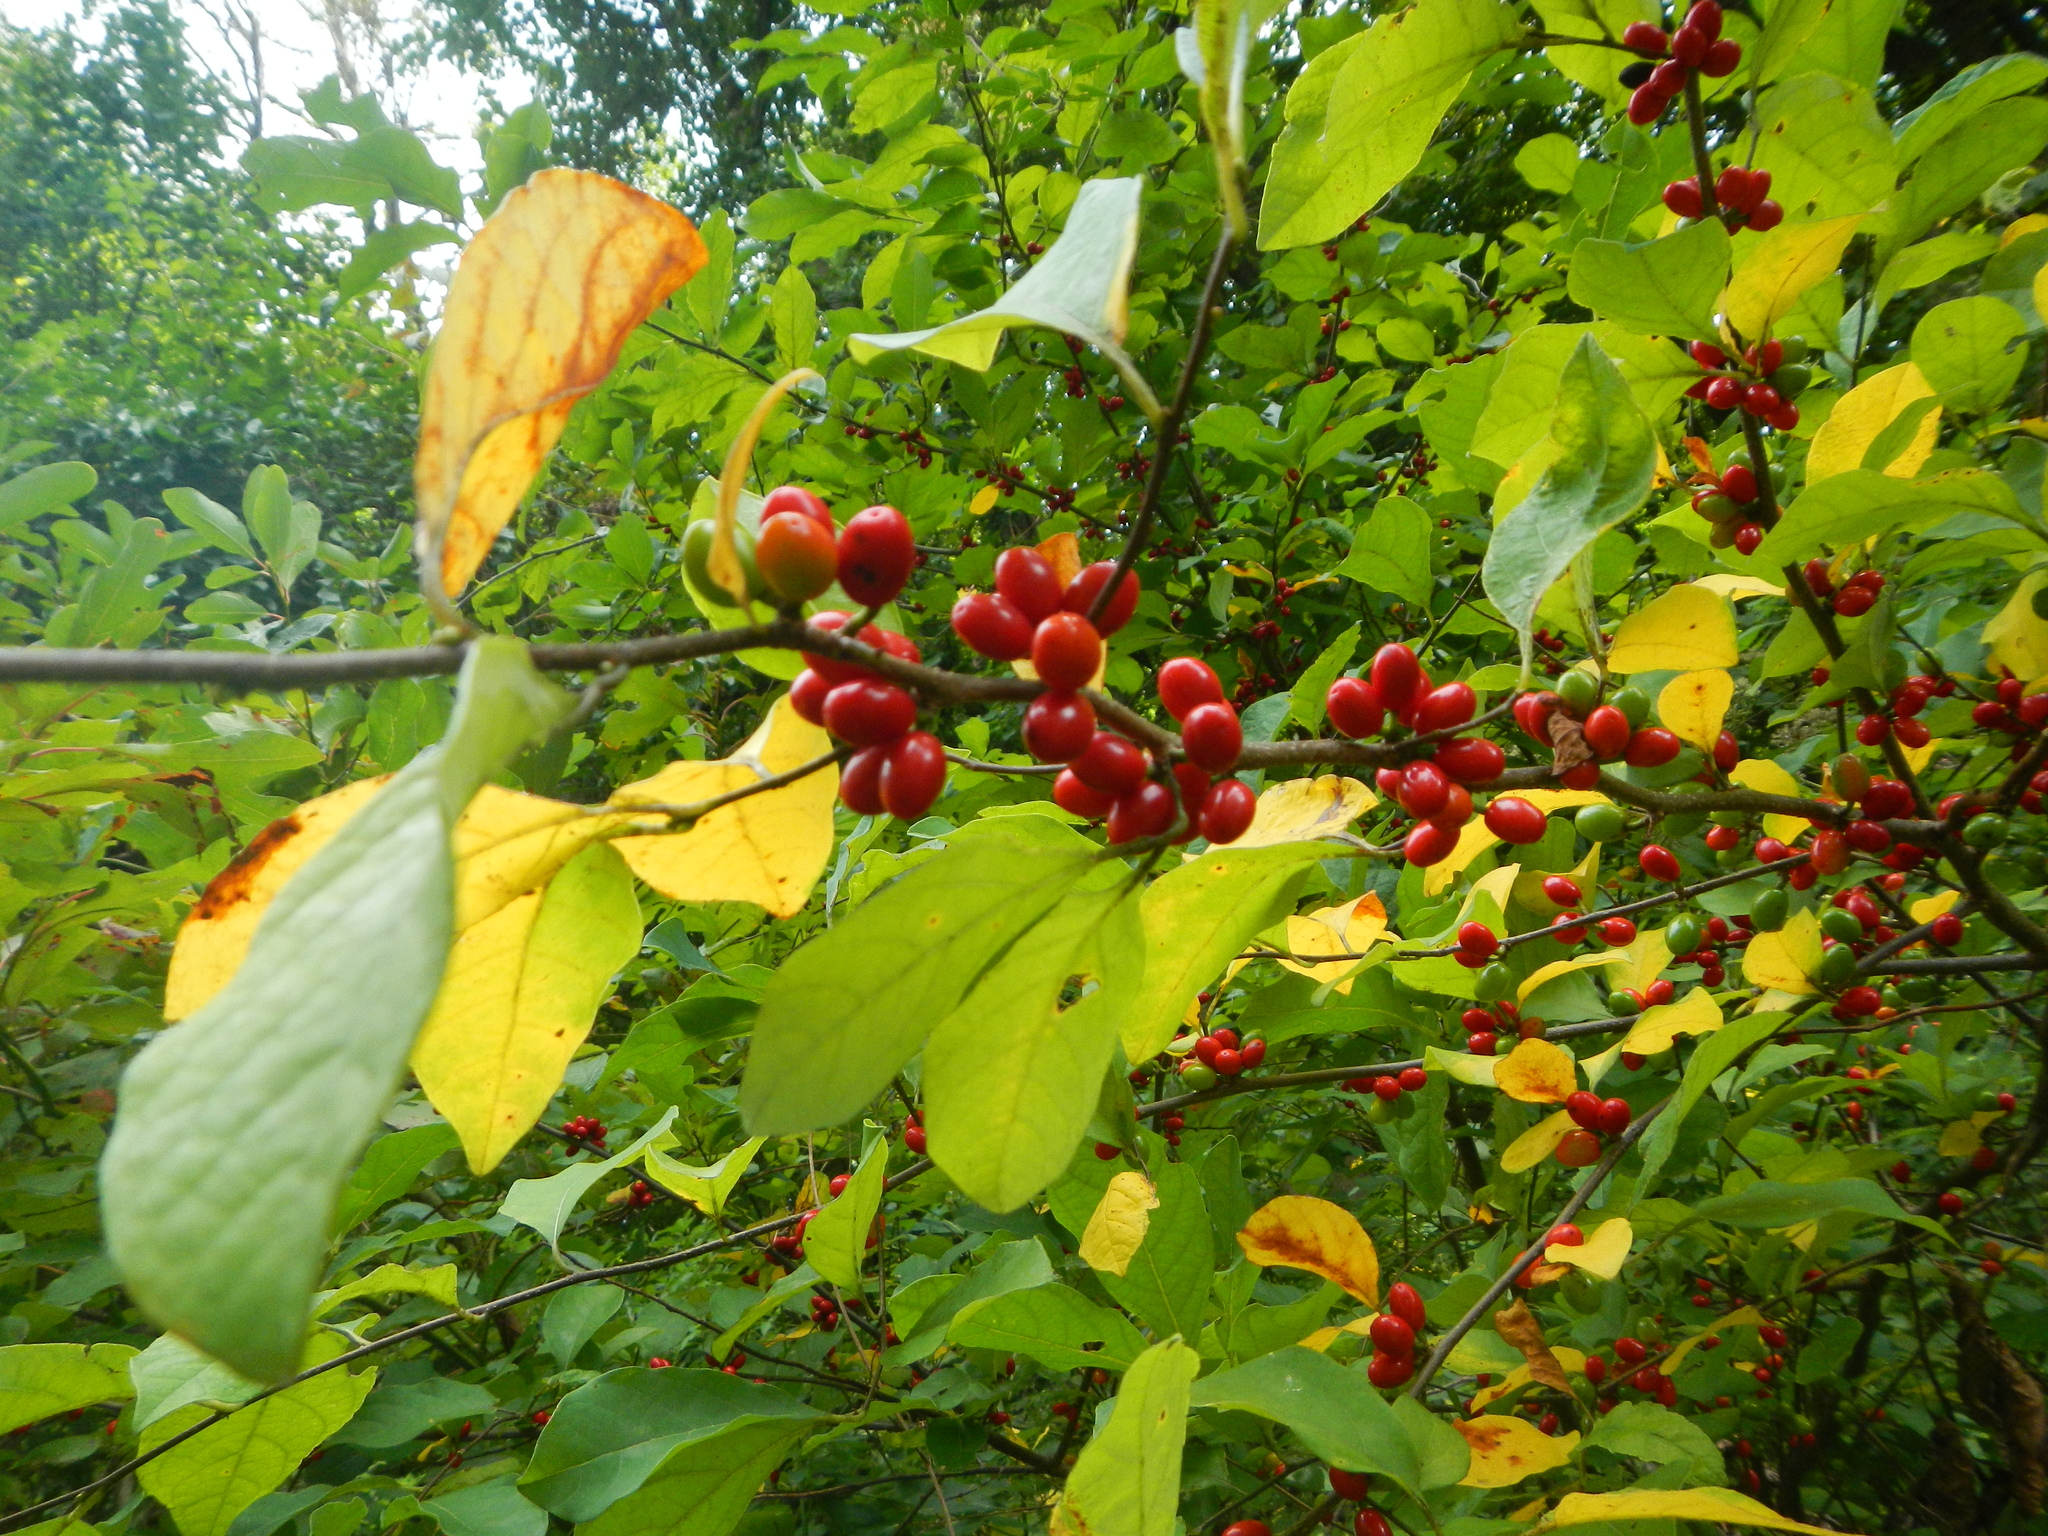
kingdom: Plantae
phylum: Tracheophyta
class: Magnoliopsida
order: Laurales
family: Lauraceae
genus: Lindera
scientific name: Lindera benzoin
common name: Spicebush
